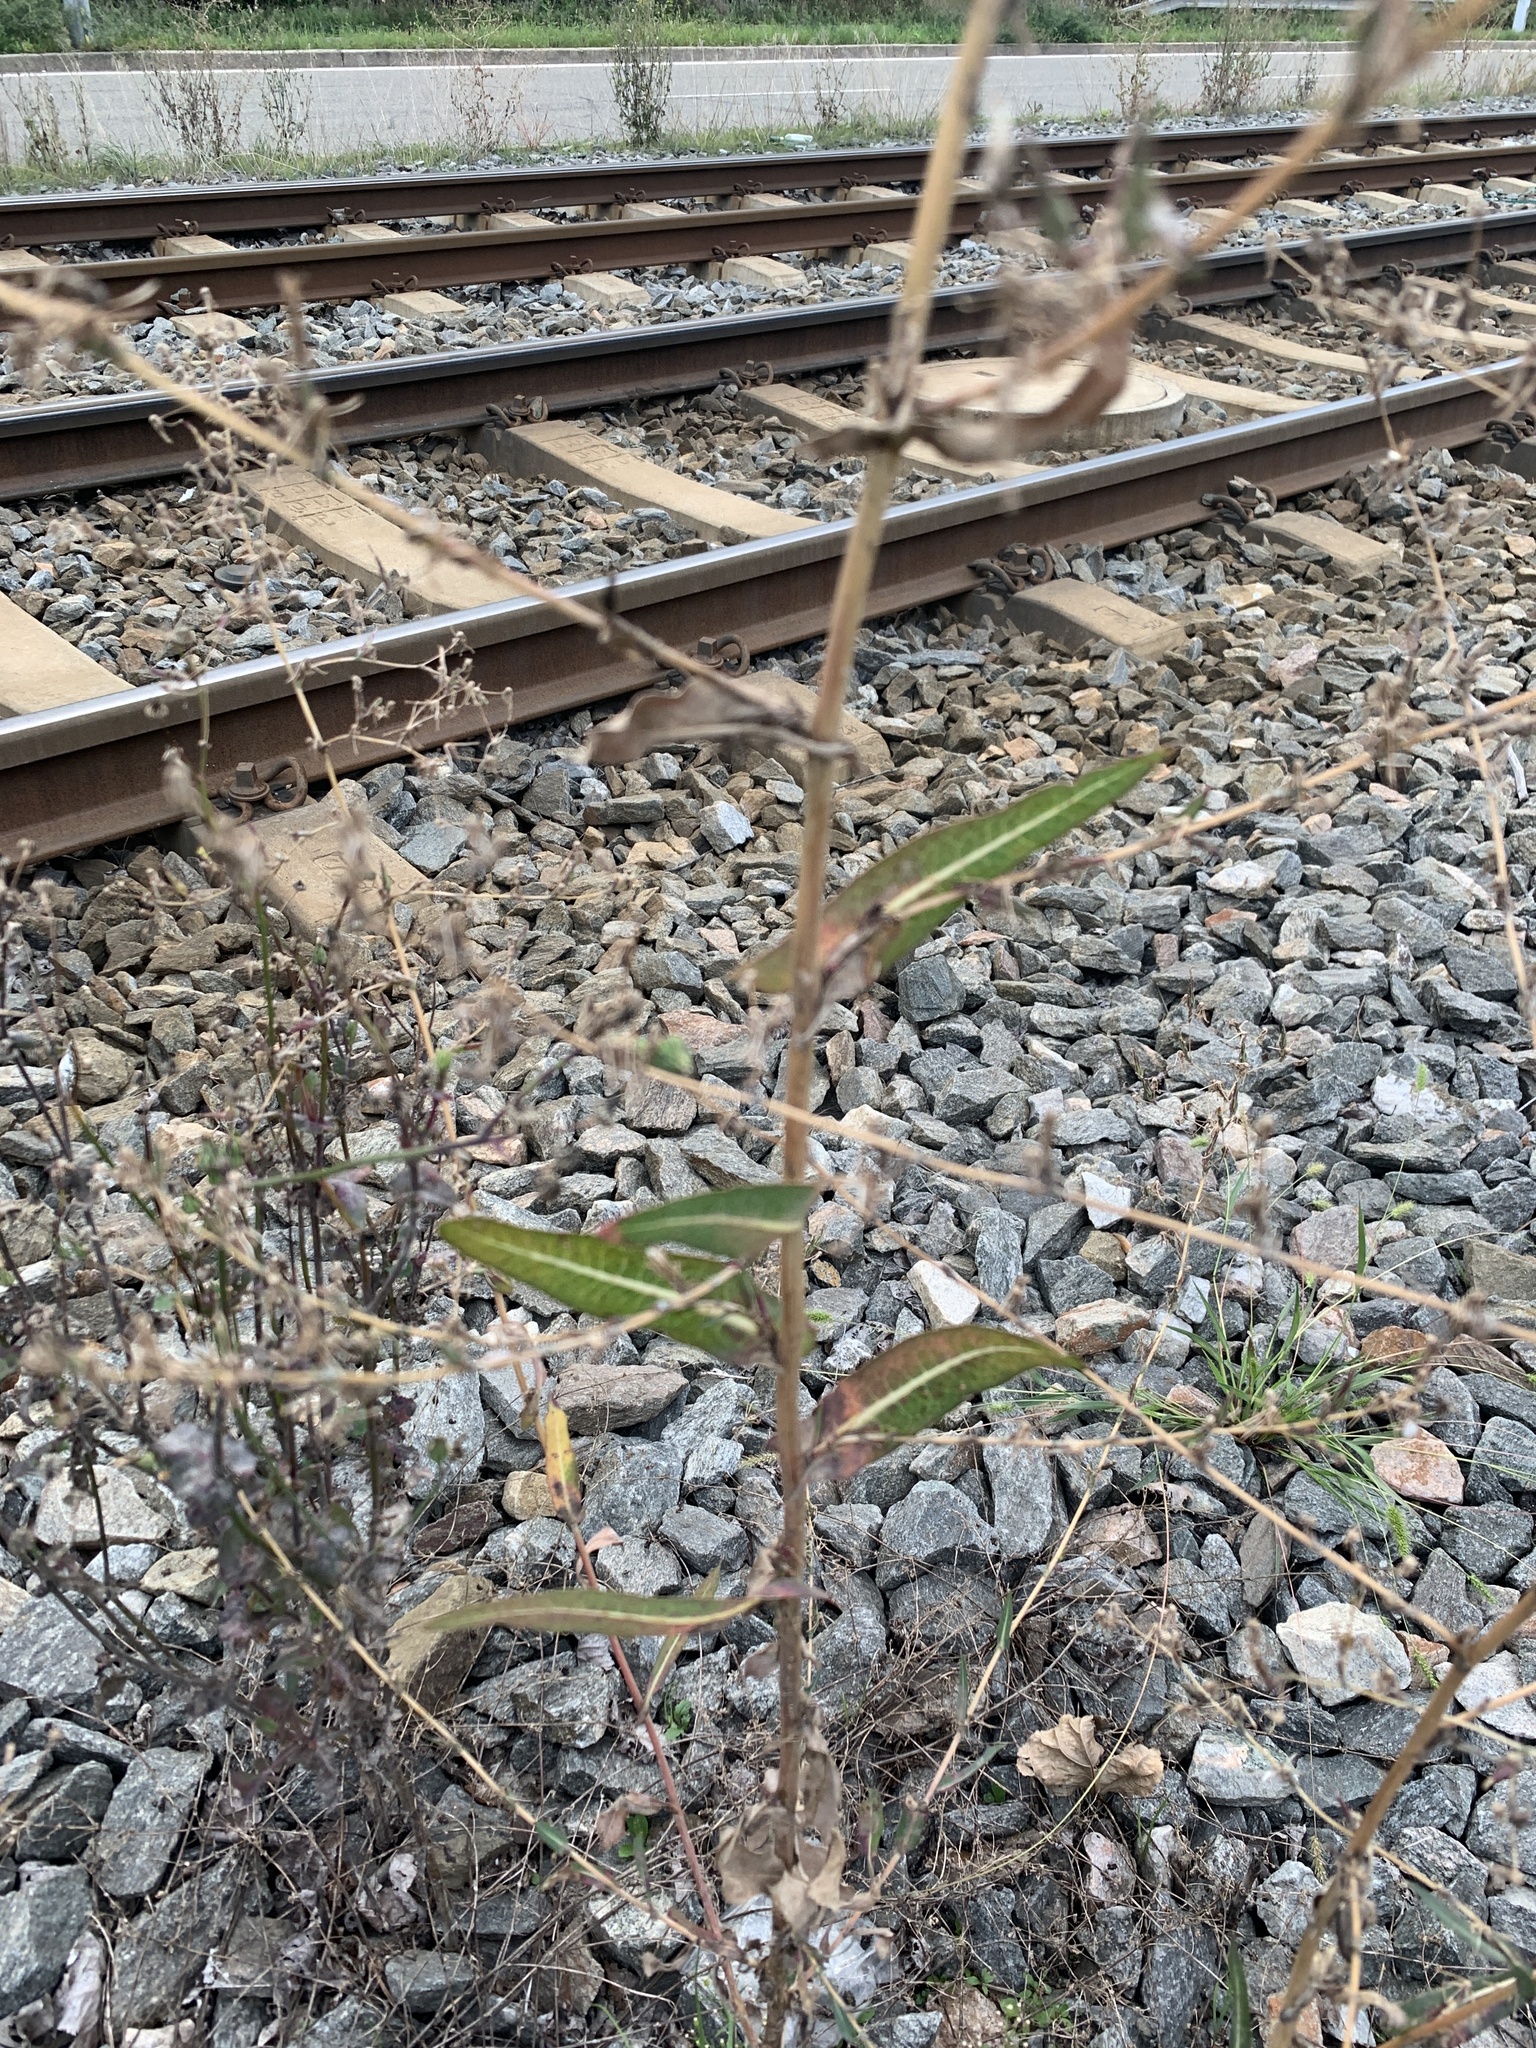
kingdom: Plantae
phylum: Tracheophyta
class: Magnoliopsida
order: Asterales
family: Asteraceae
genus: Lactuca
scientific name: Lactuca serriola
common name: Prickly lettuce
